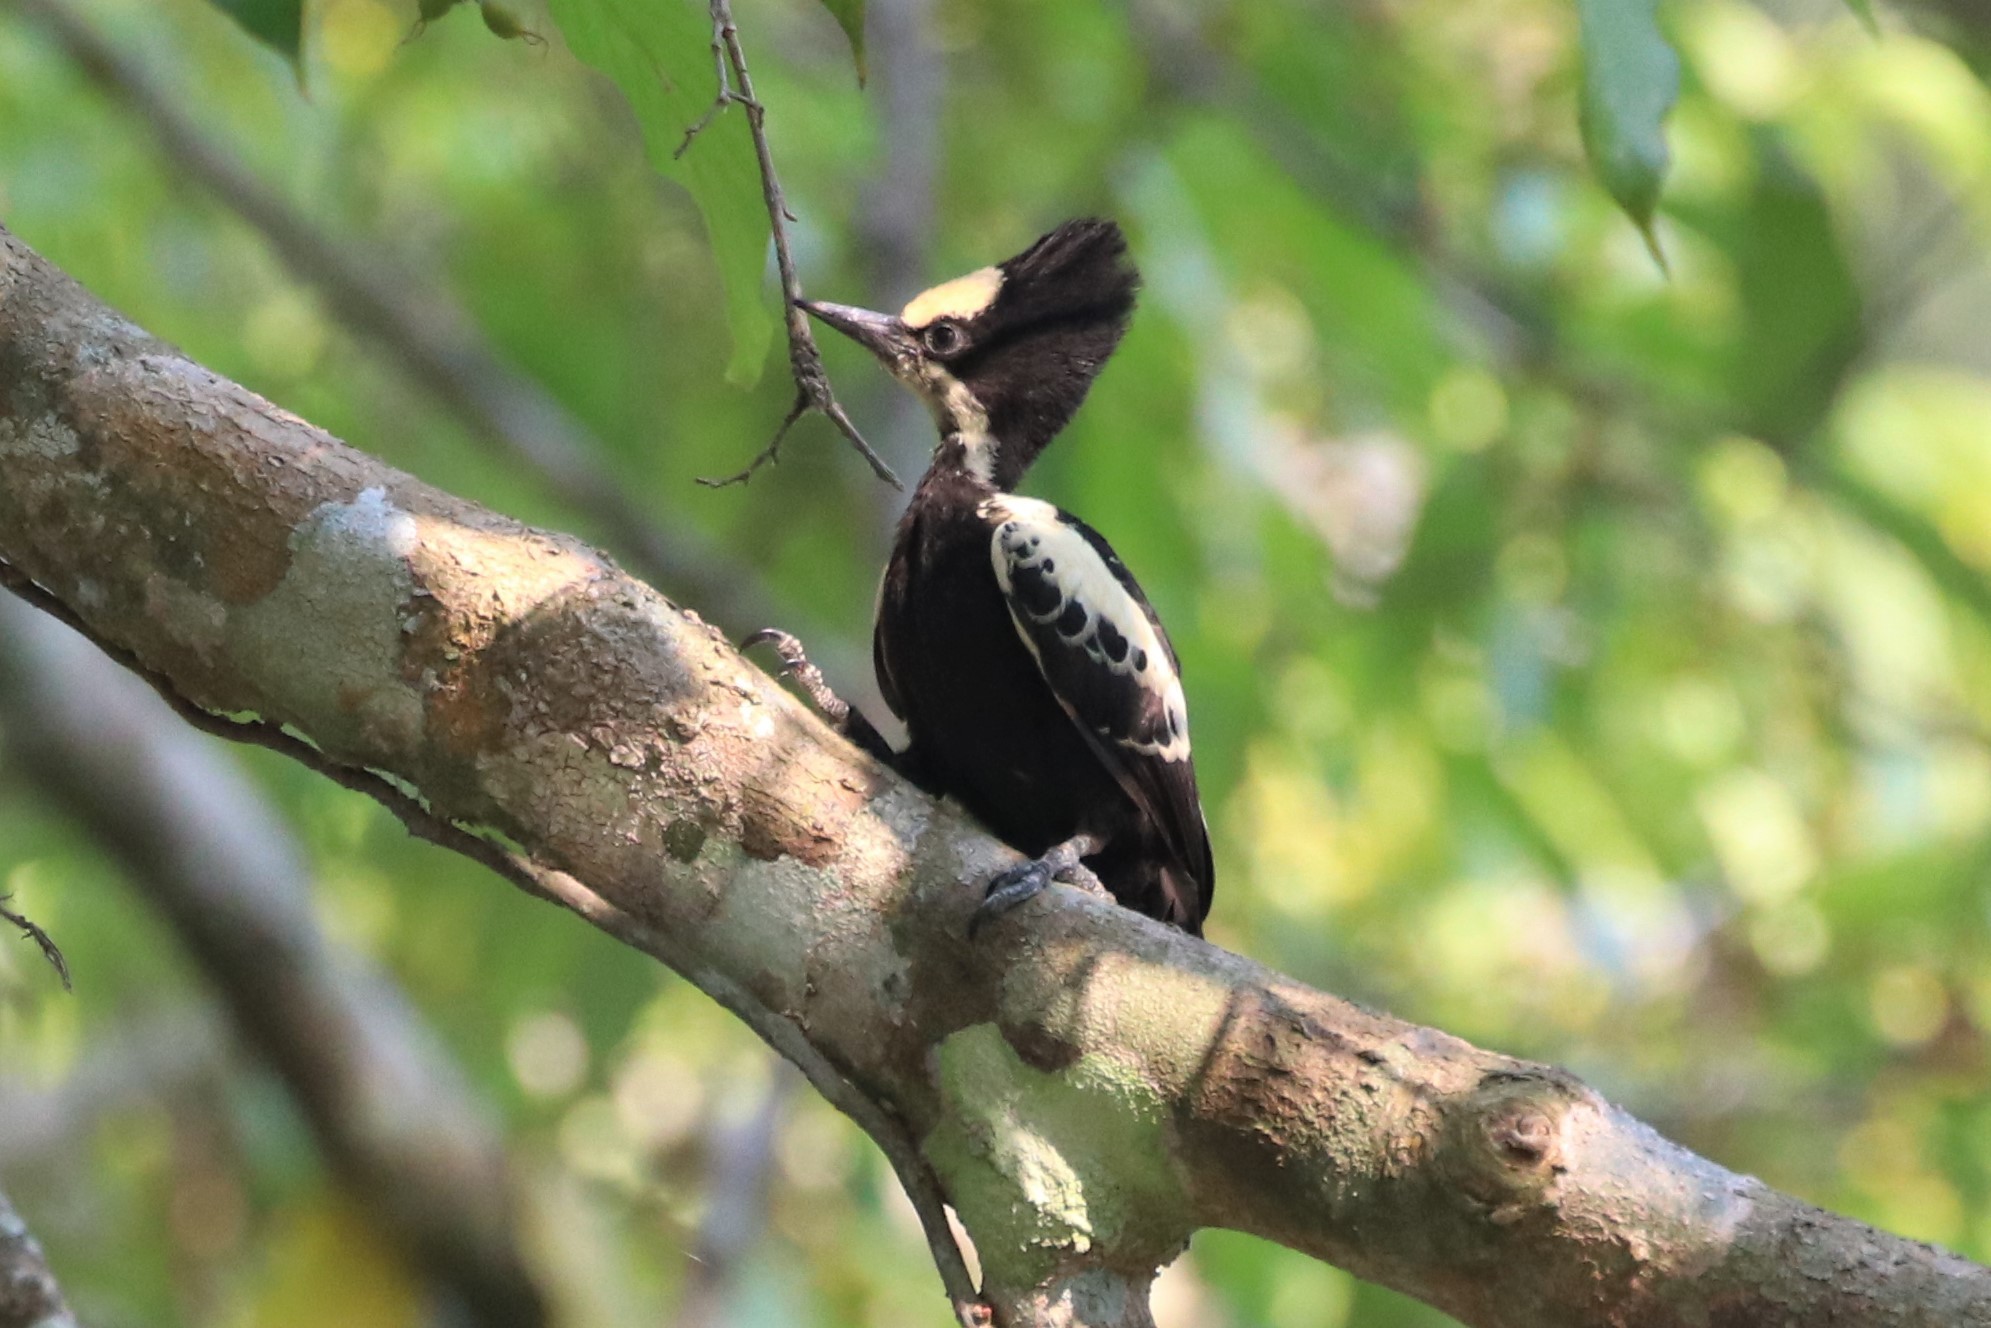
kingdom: Animalia
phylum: Chordata
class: Aves
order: Piciformes
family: Picidae
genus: Hemicircus
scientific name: Hemicircus canente
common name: Heart-spotted woodpecker
